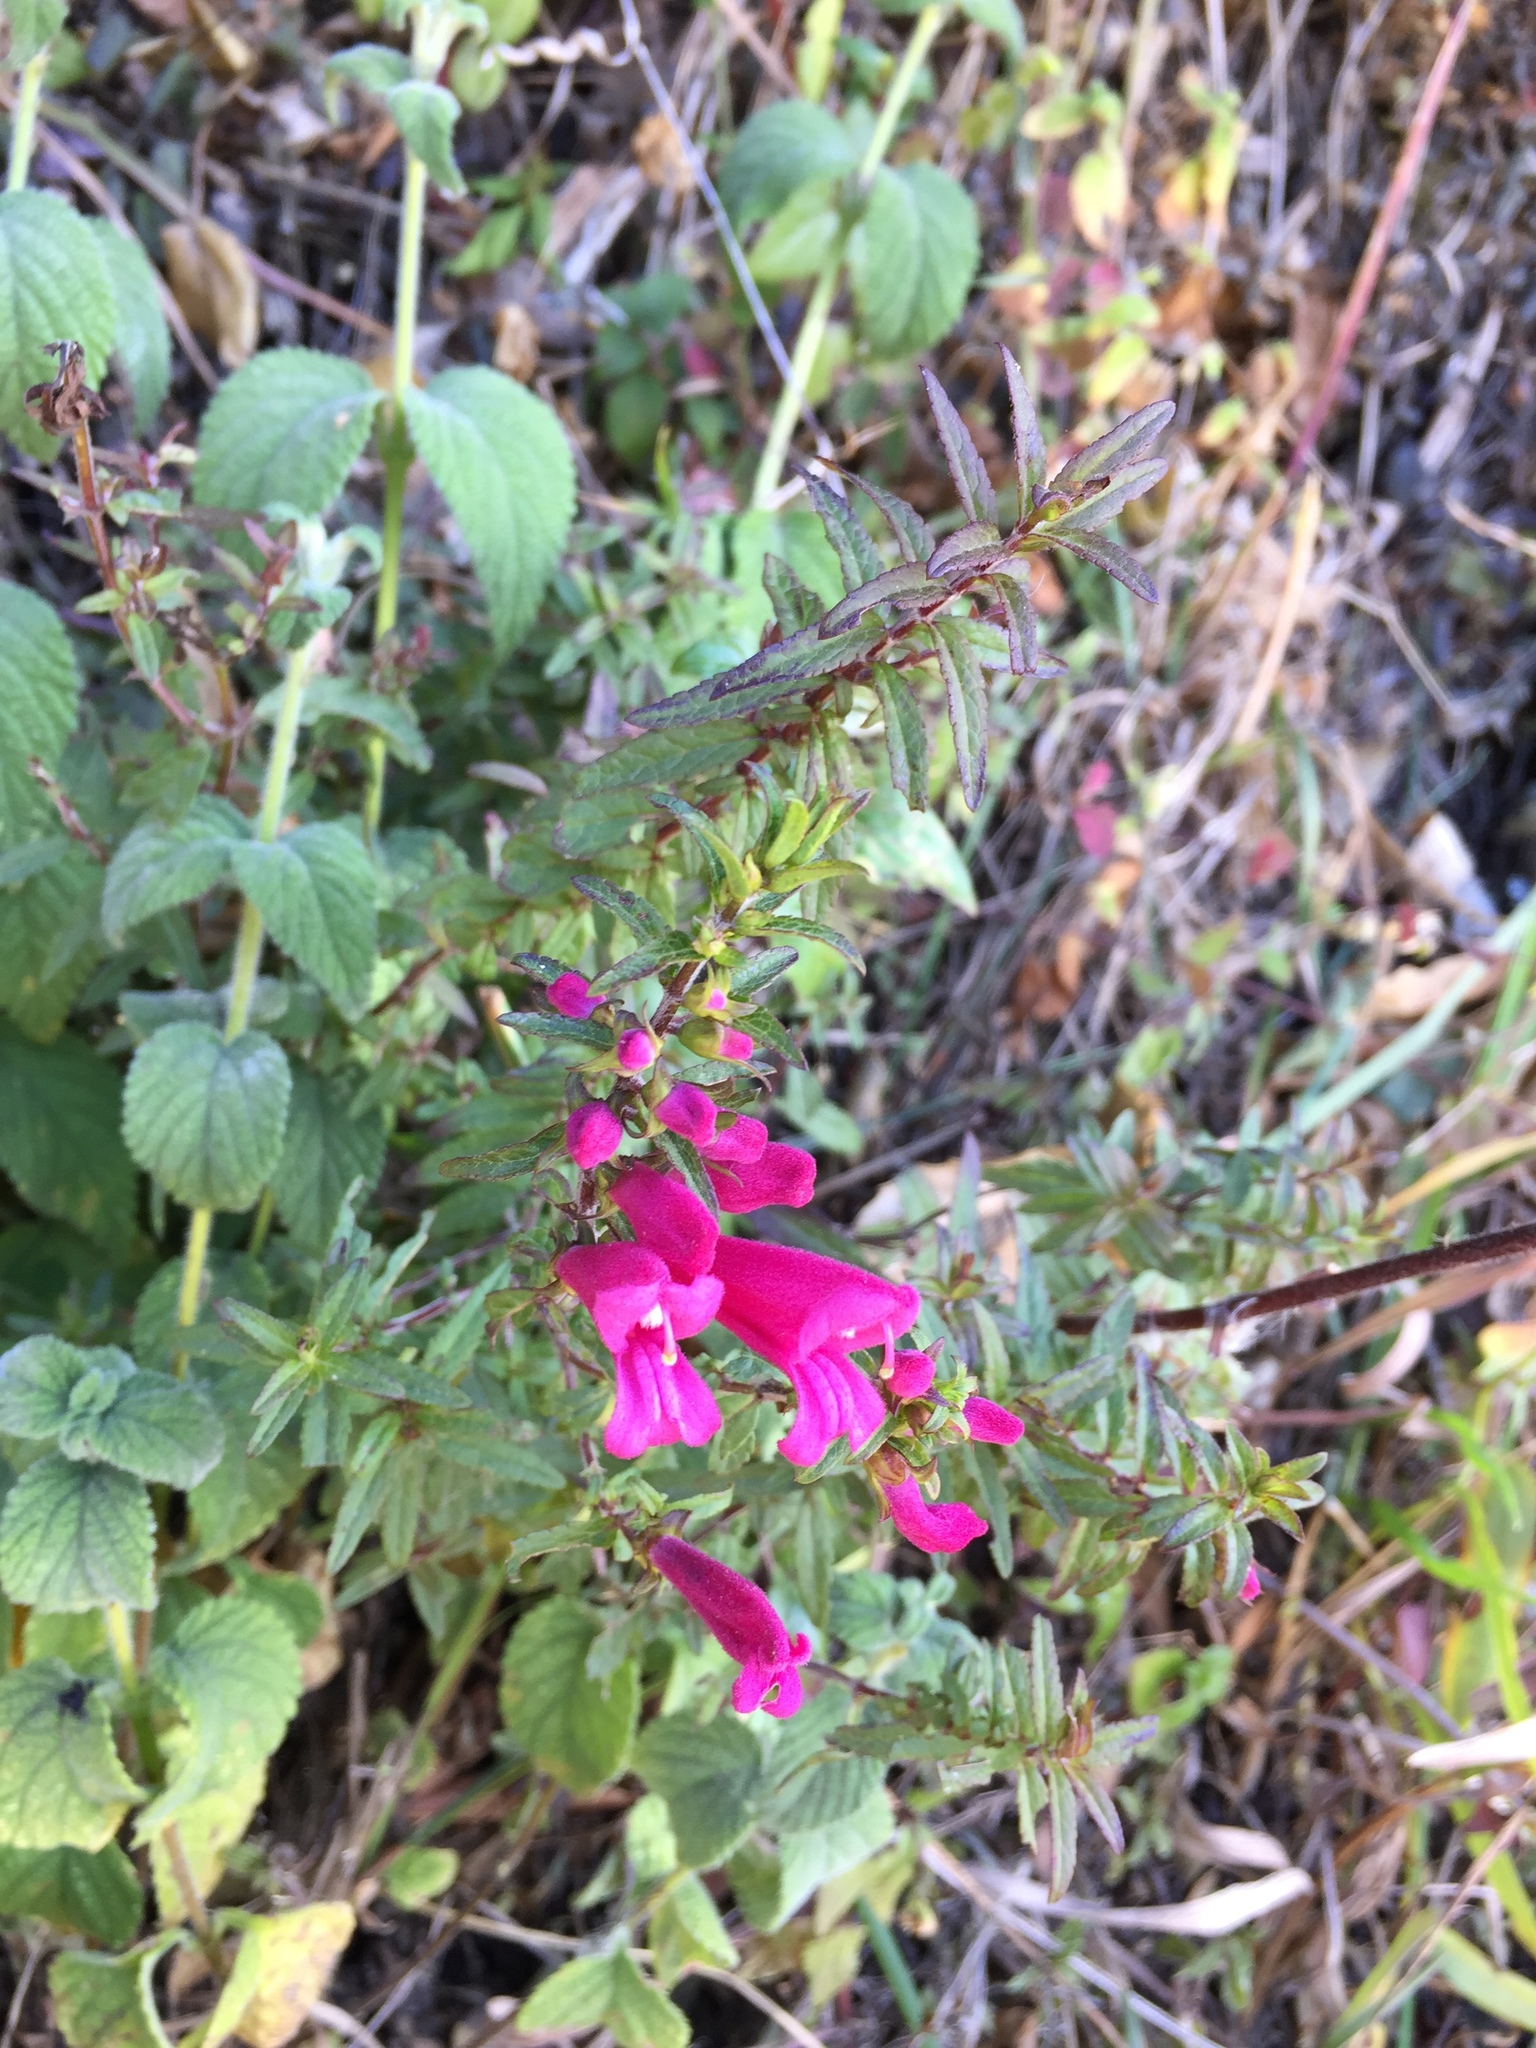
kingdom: Plantae
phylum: Tracheophyta
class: Magnoliopsida
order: Lamiales
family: Orobanchaceae
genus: Lamourouxia
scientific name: Lamourouxia virgata
